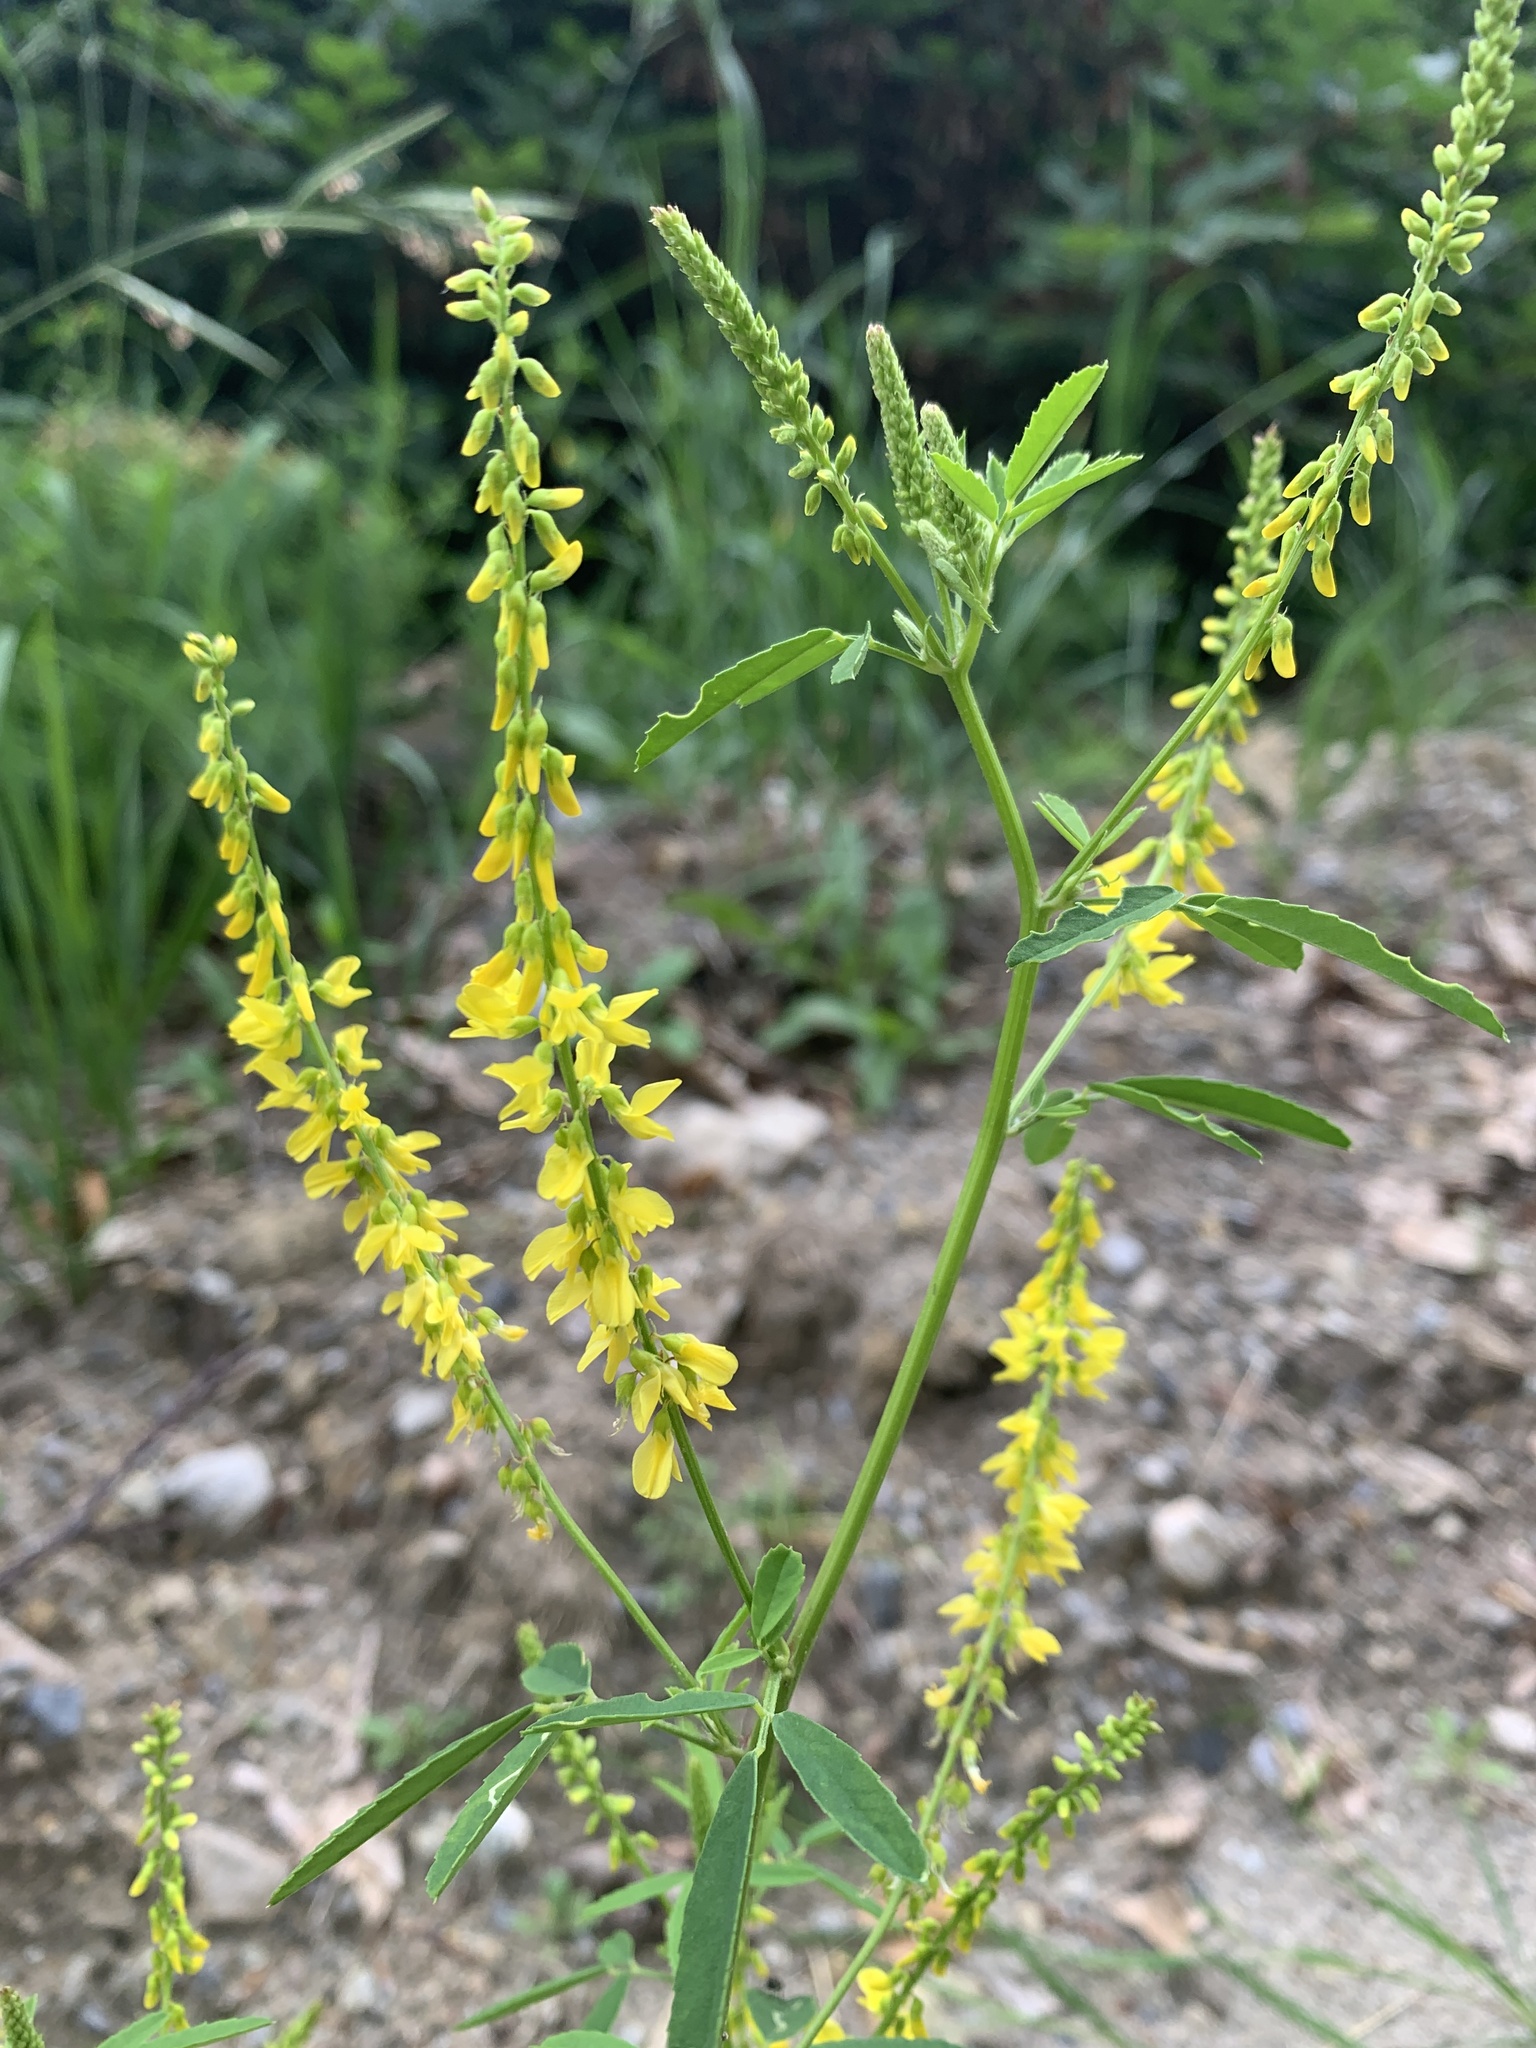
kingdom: Plantae
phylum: Tracheophyta
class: Magnoliopsida
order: Fabales
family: Fabaceae
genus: Melilotus
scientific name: Melilotus officinalis
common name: Sweetclover
